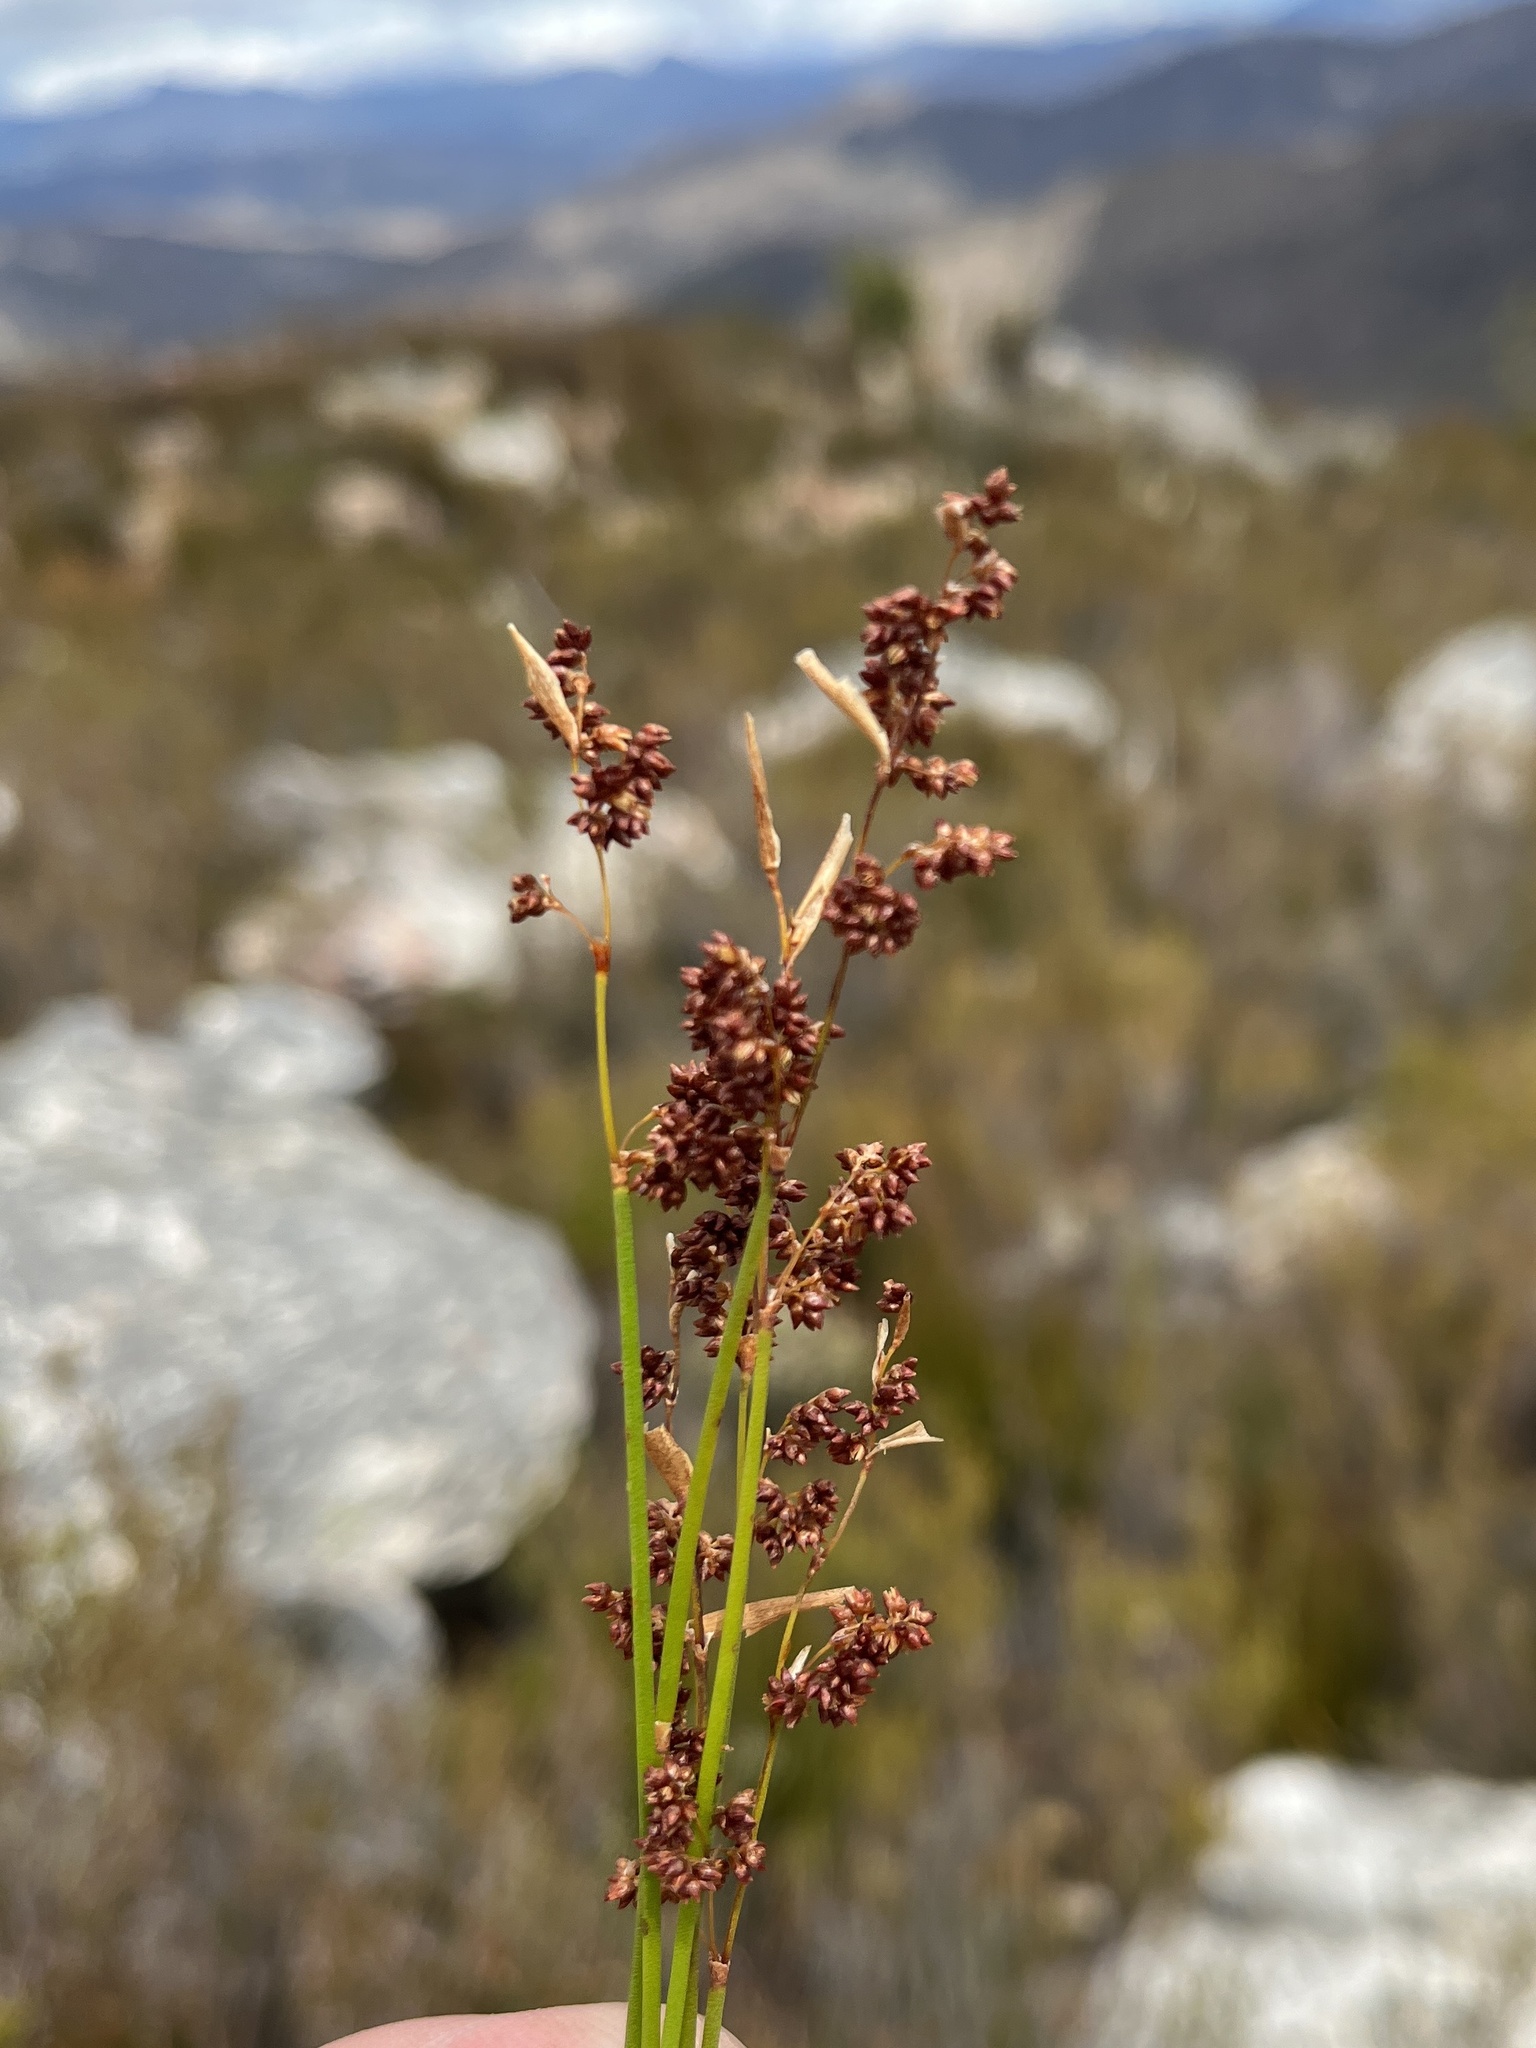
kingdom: Plantae
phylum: Tracheophyta
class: Liliopsida
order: Poales
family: Restionaceae
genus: Elegia
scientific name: Elegia filacea
